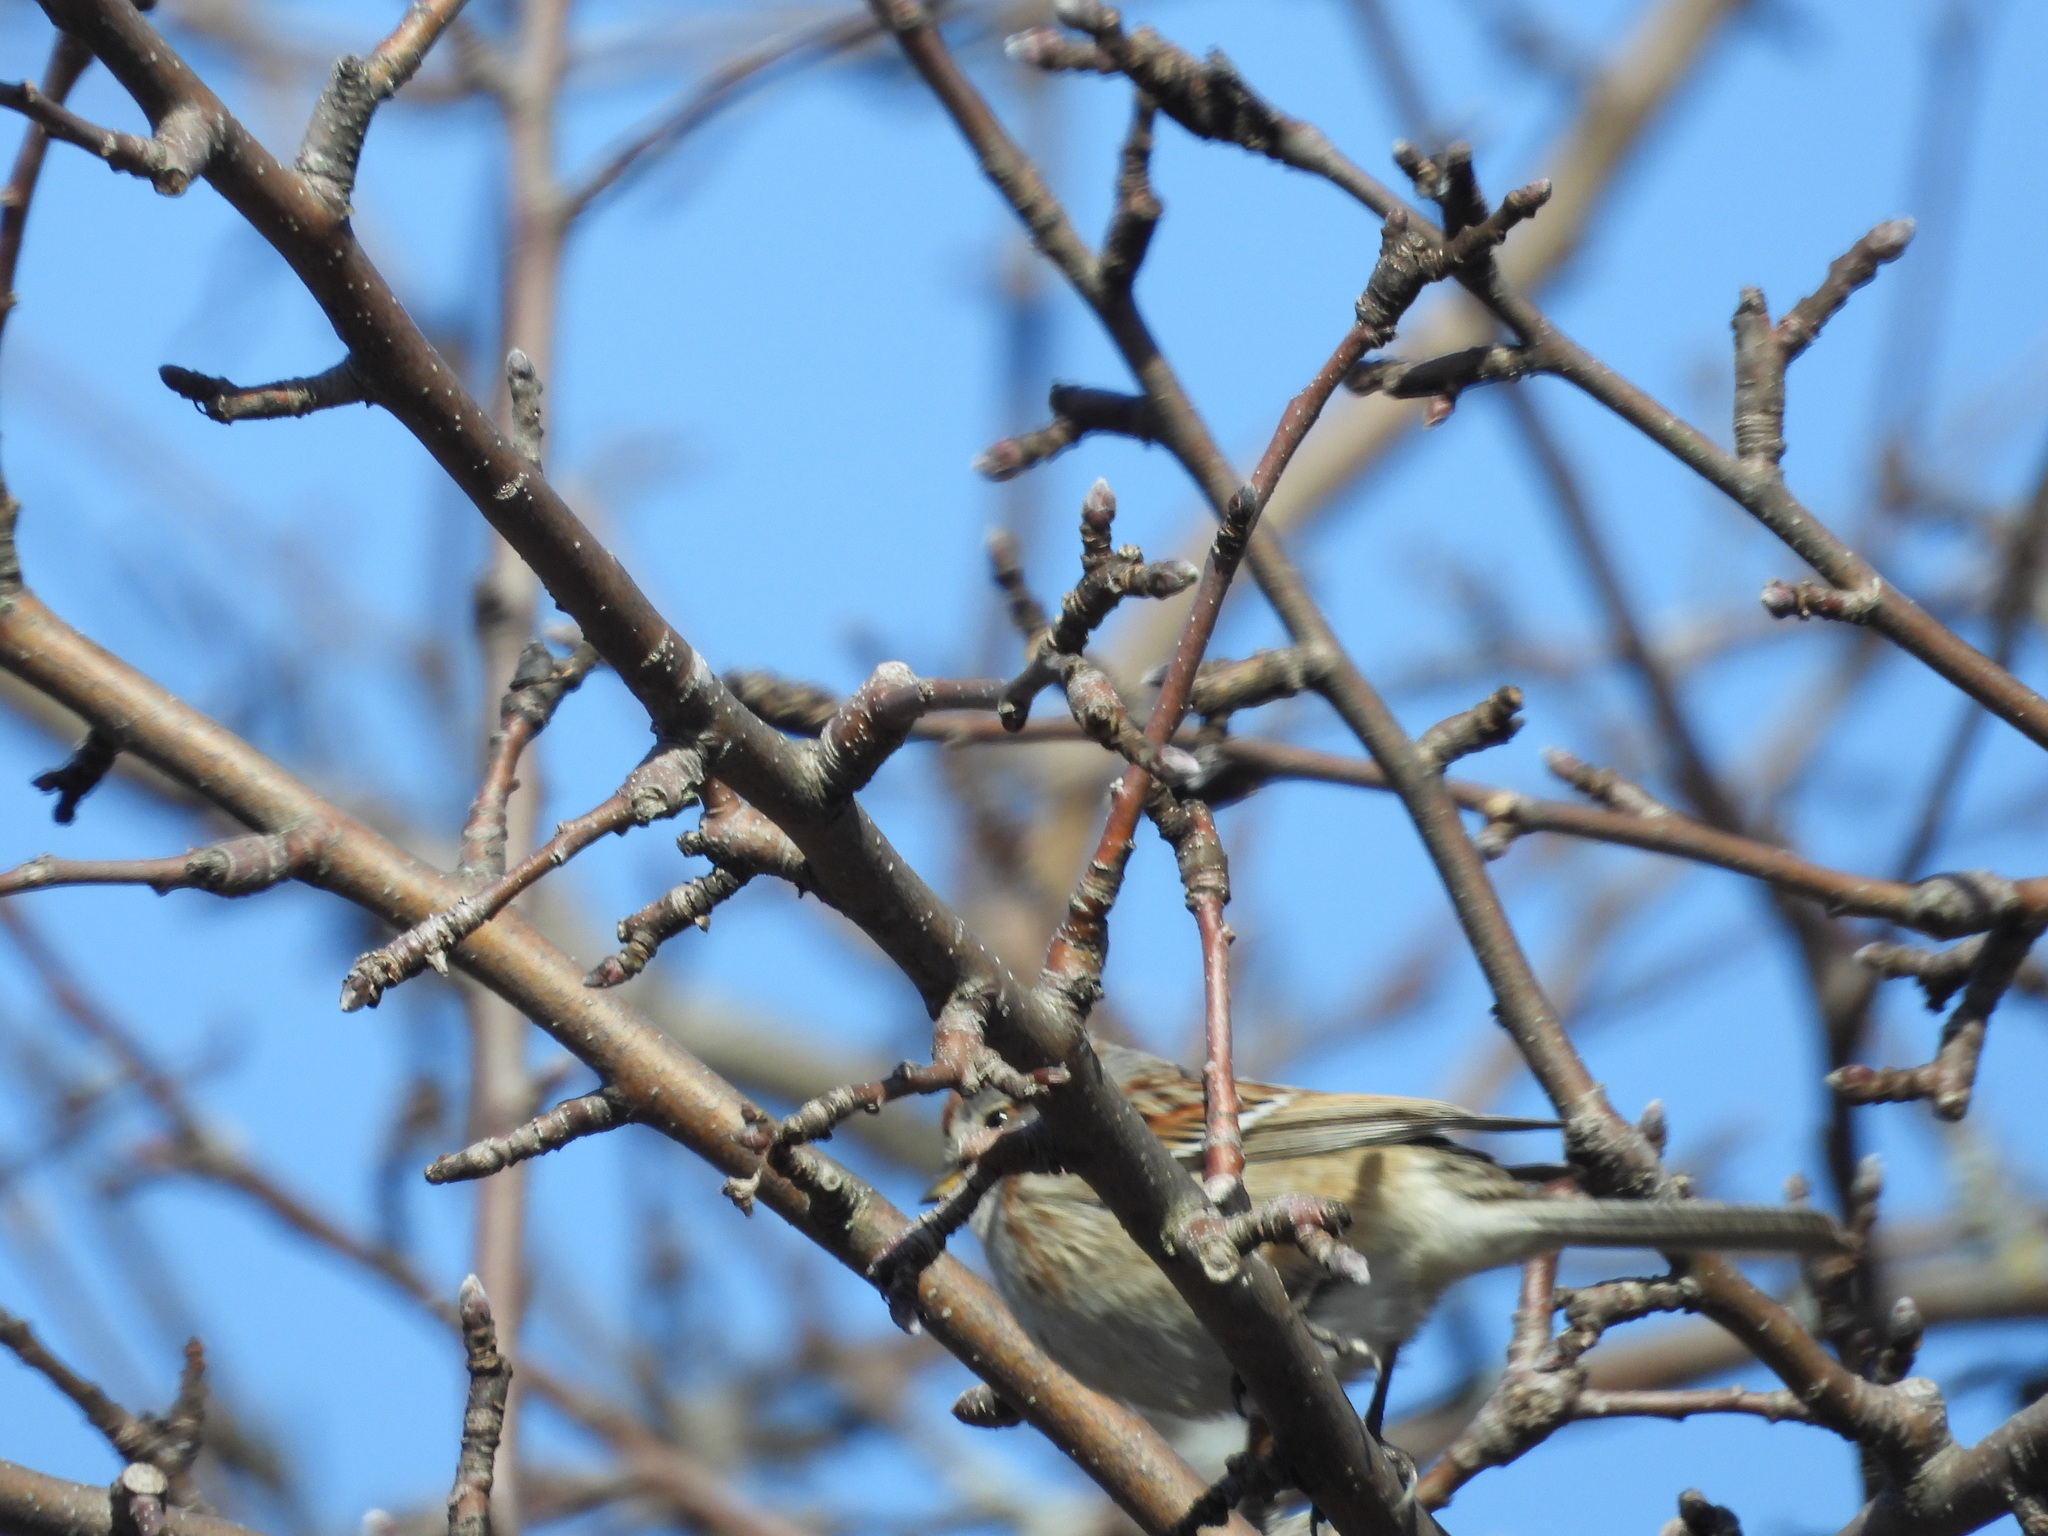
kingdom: Animalia
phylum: Chordata
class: Aves
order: Passeriformes
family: Passerellidae
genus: Spizelloides
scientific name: Spizelloides arborea
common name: American tree sparrow
